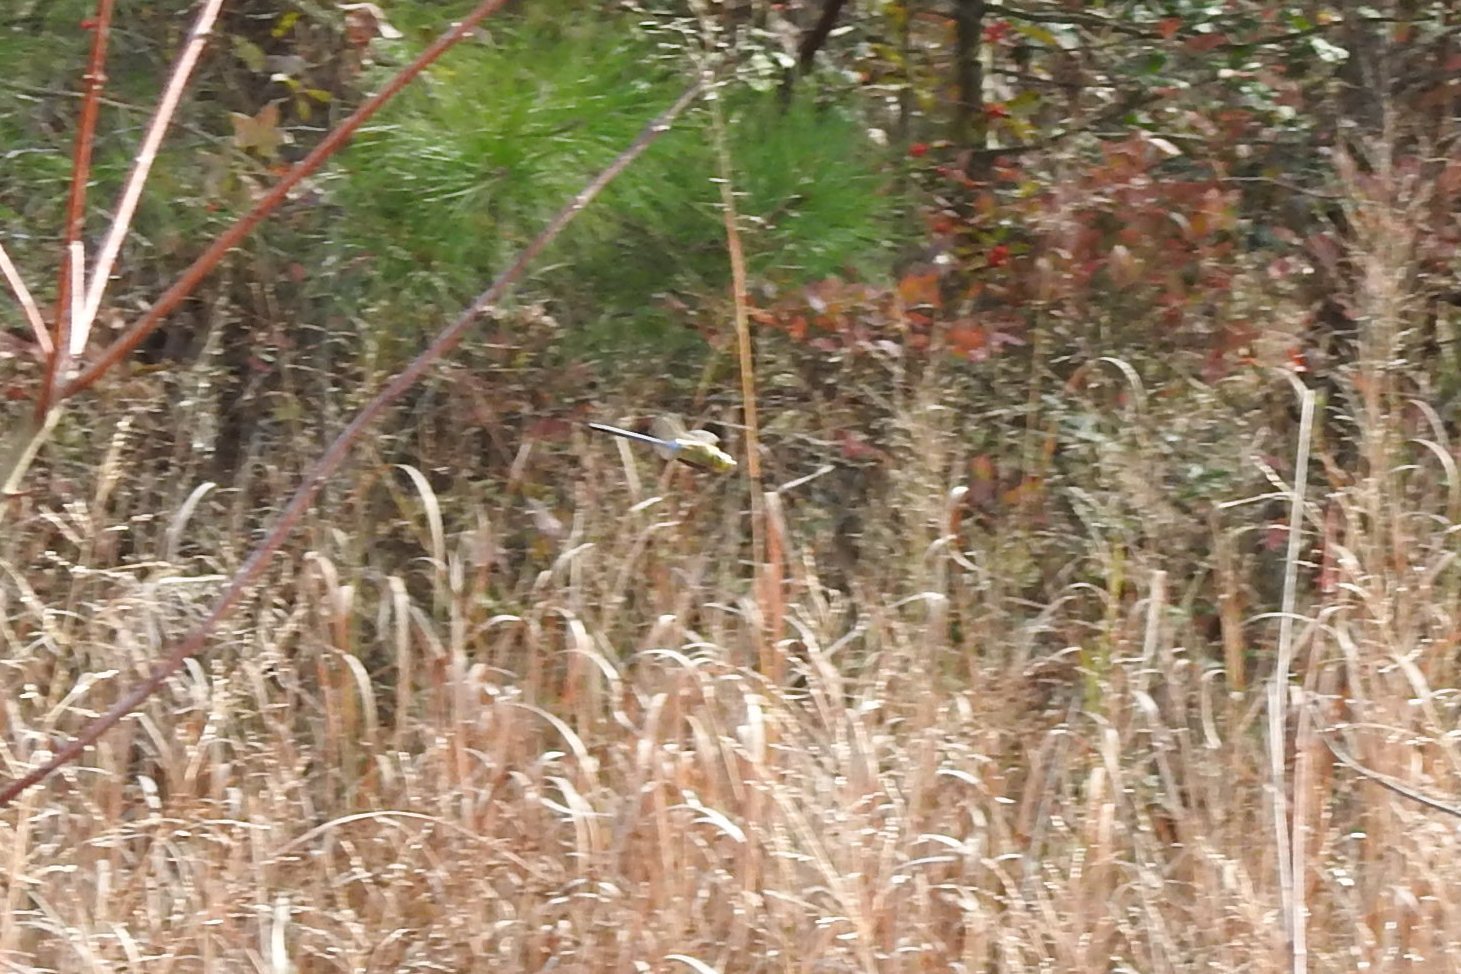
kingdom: Animalia
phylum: Arthropoda
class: Insecta
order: Odonata
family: Aeshnidae
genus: Anax
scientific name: Anax junius
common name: Common green darner
